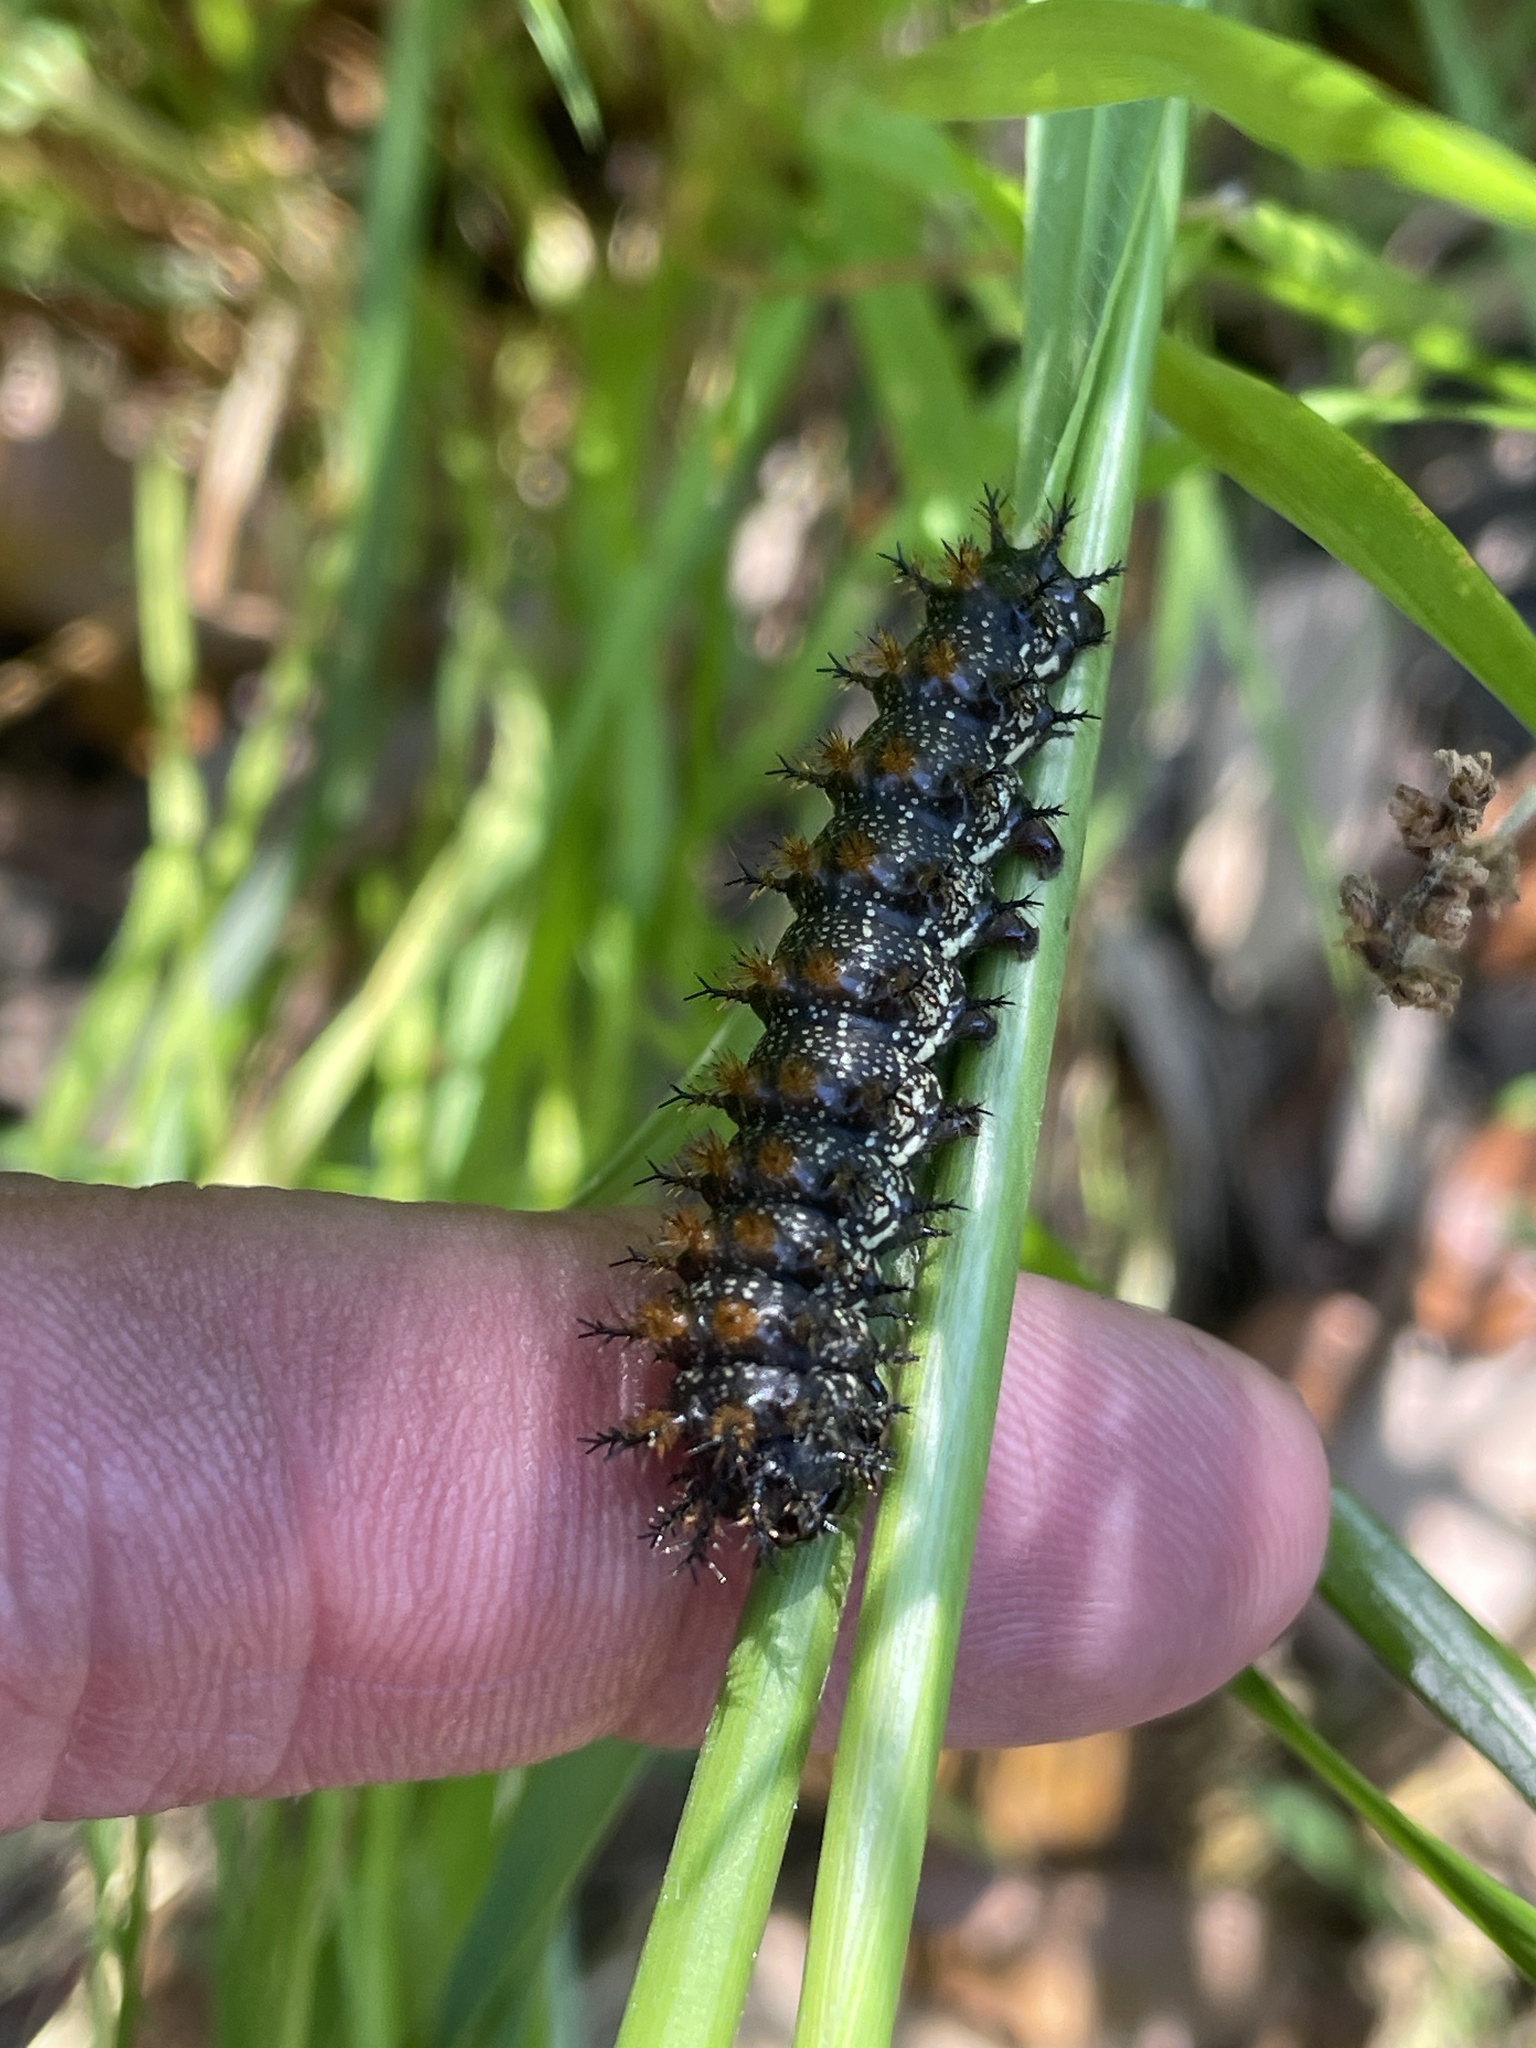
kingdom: Animalia
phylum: Arthropoda
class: Insecta
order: Lepidoptera
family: Nymphalidae
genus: Junonia
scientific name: Junonia coenia
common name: Common buckeye
